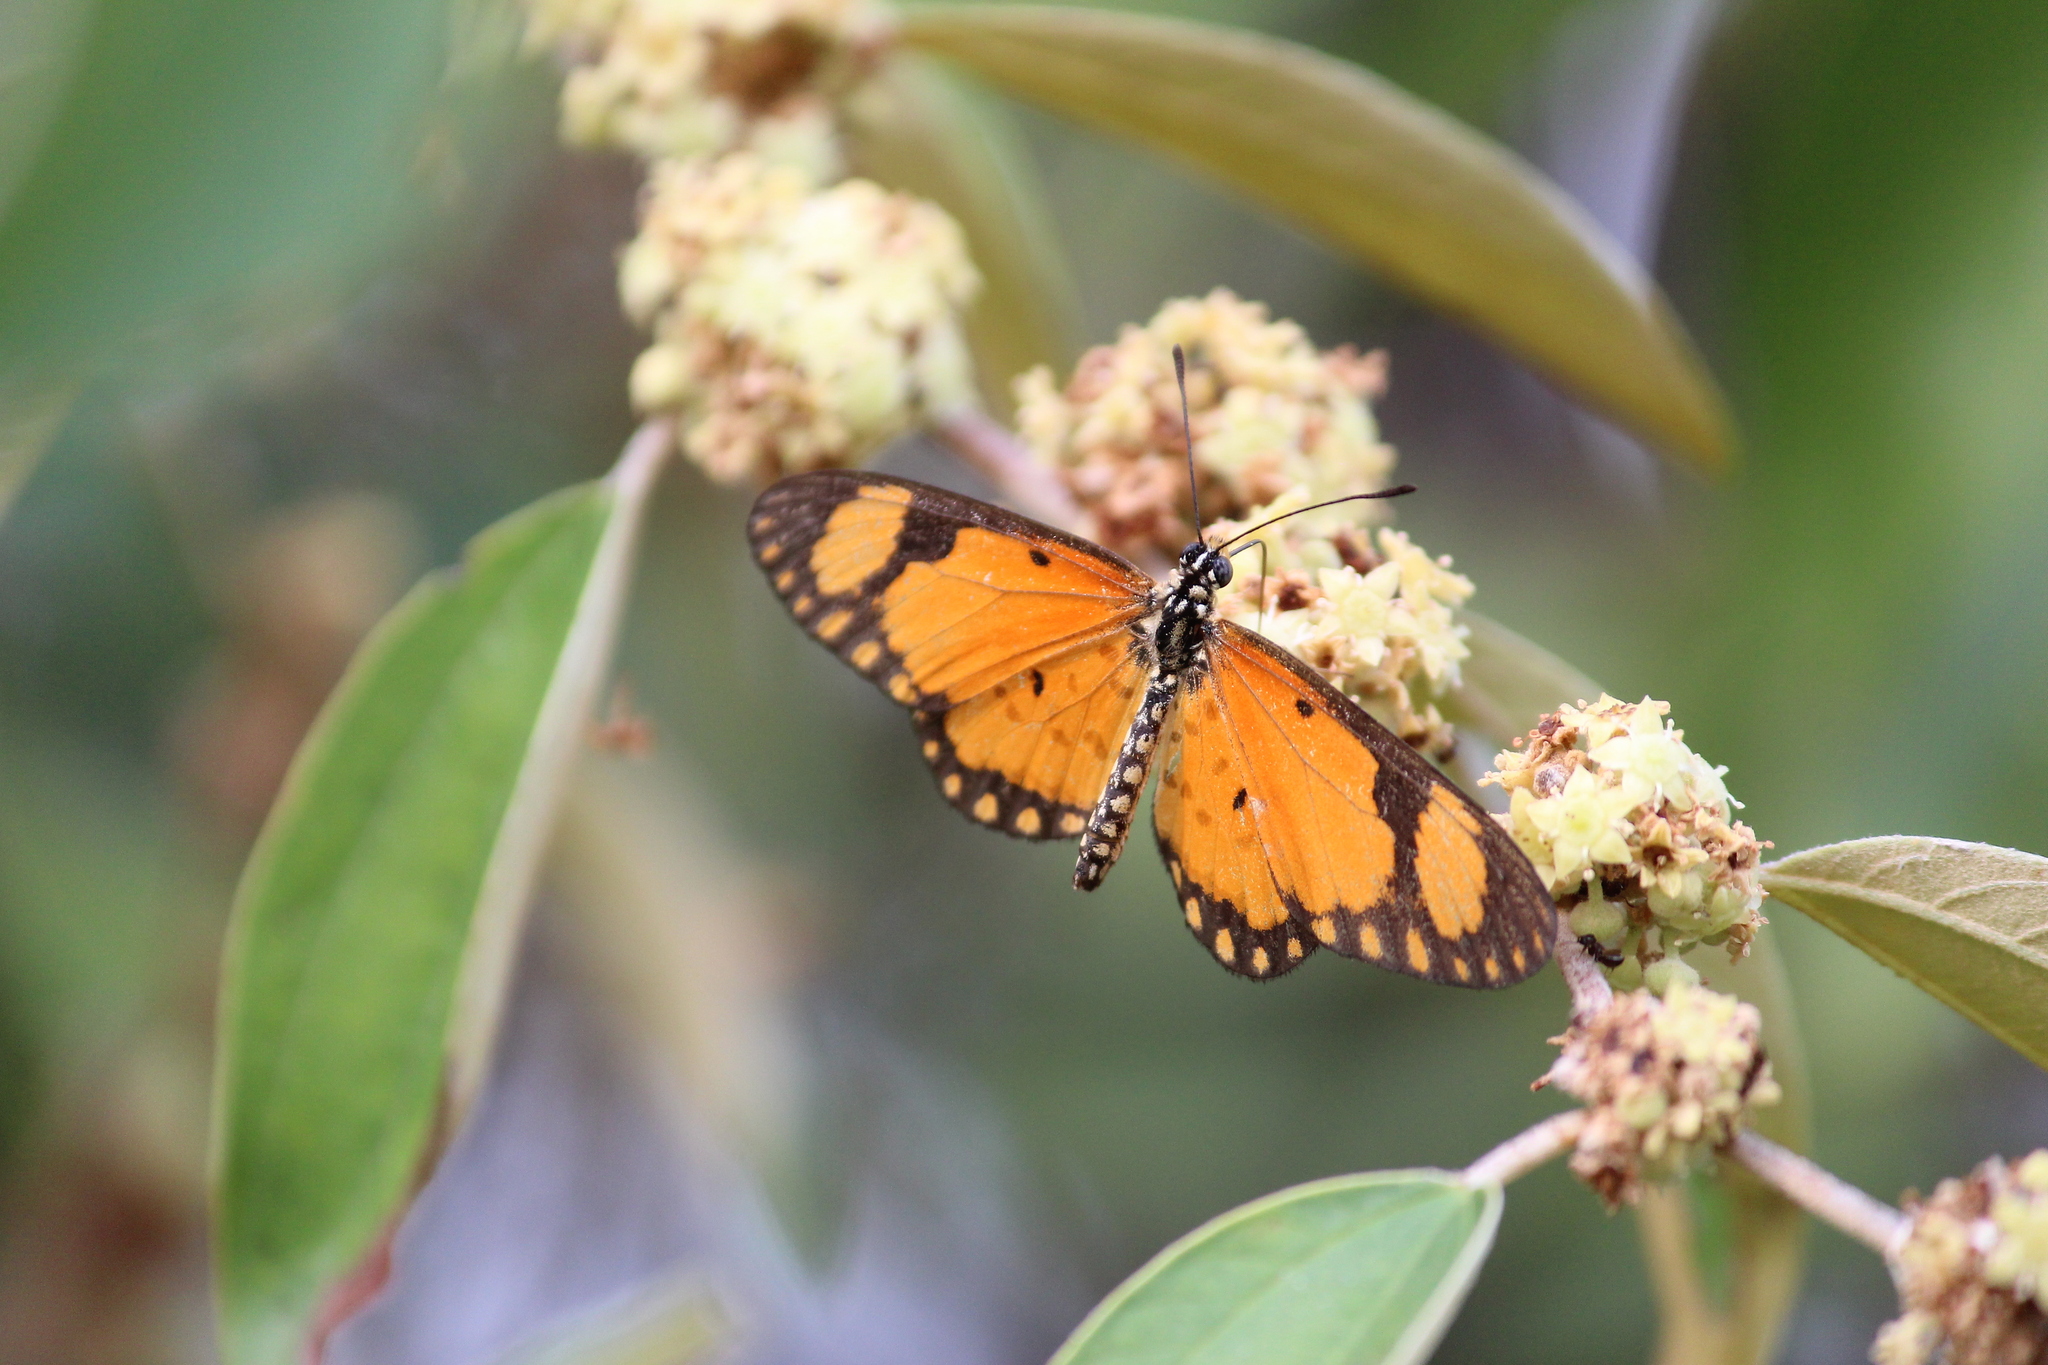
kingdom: Animalia
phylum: Arthropoda
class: Insecta
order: Lepidoptera
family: Nymphalidae
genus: Acraea
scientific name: Acraea Telchinia serena
